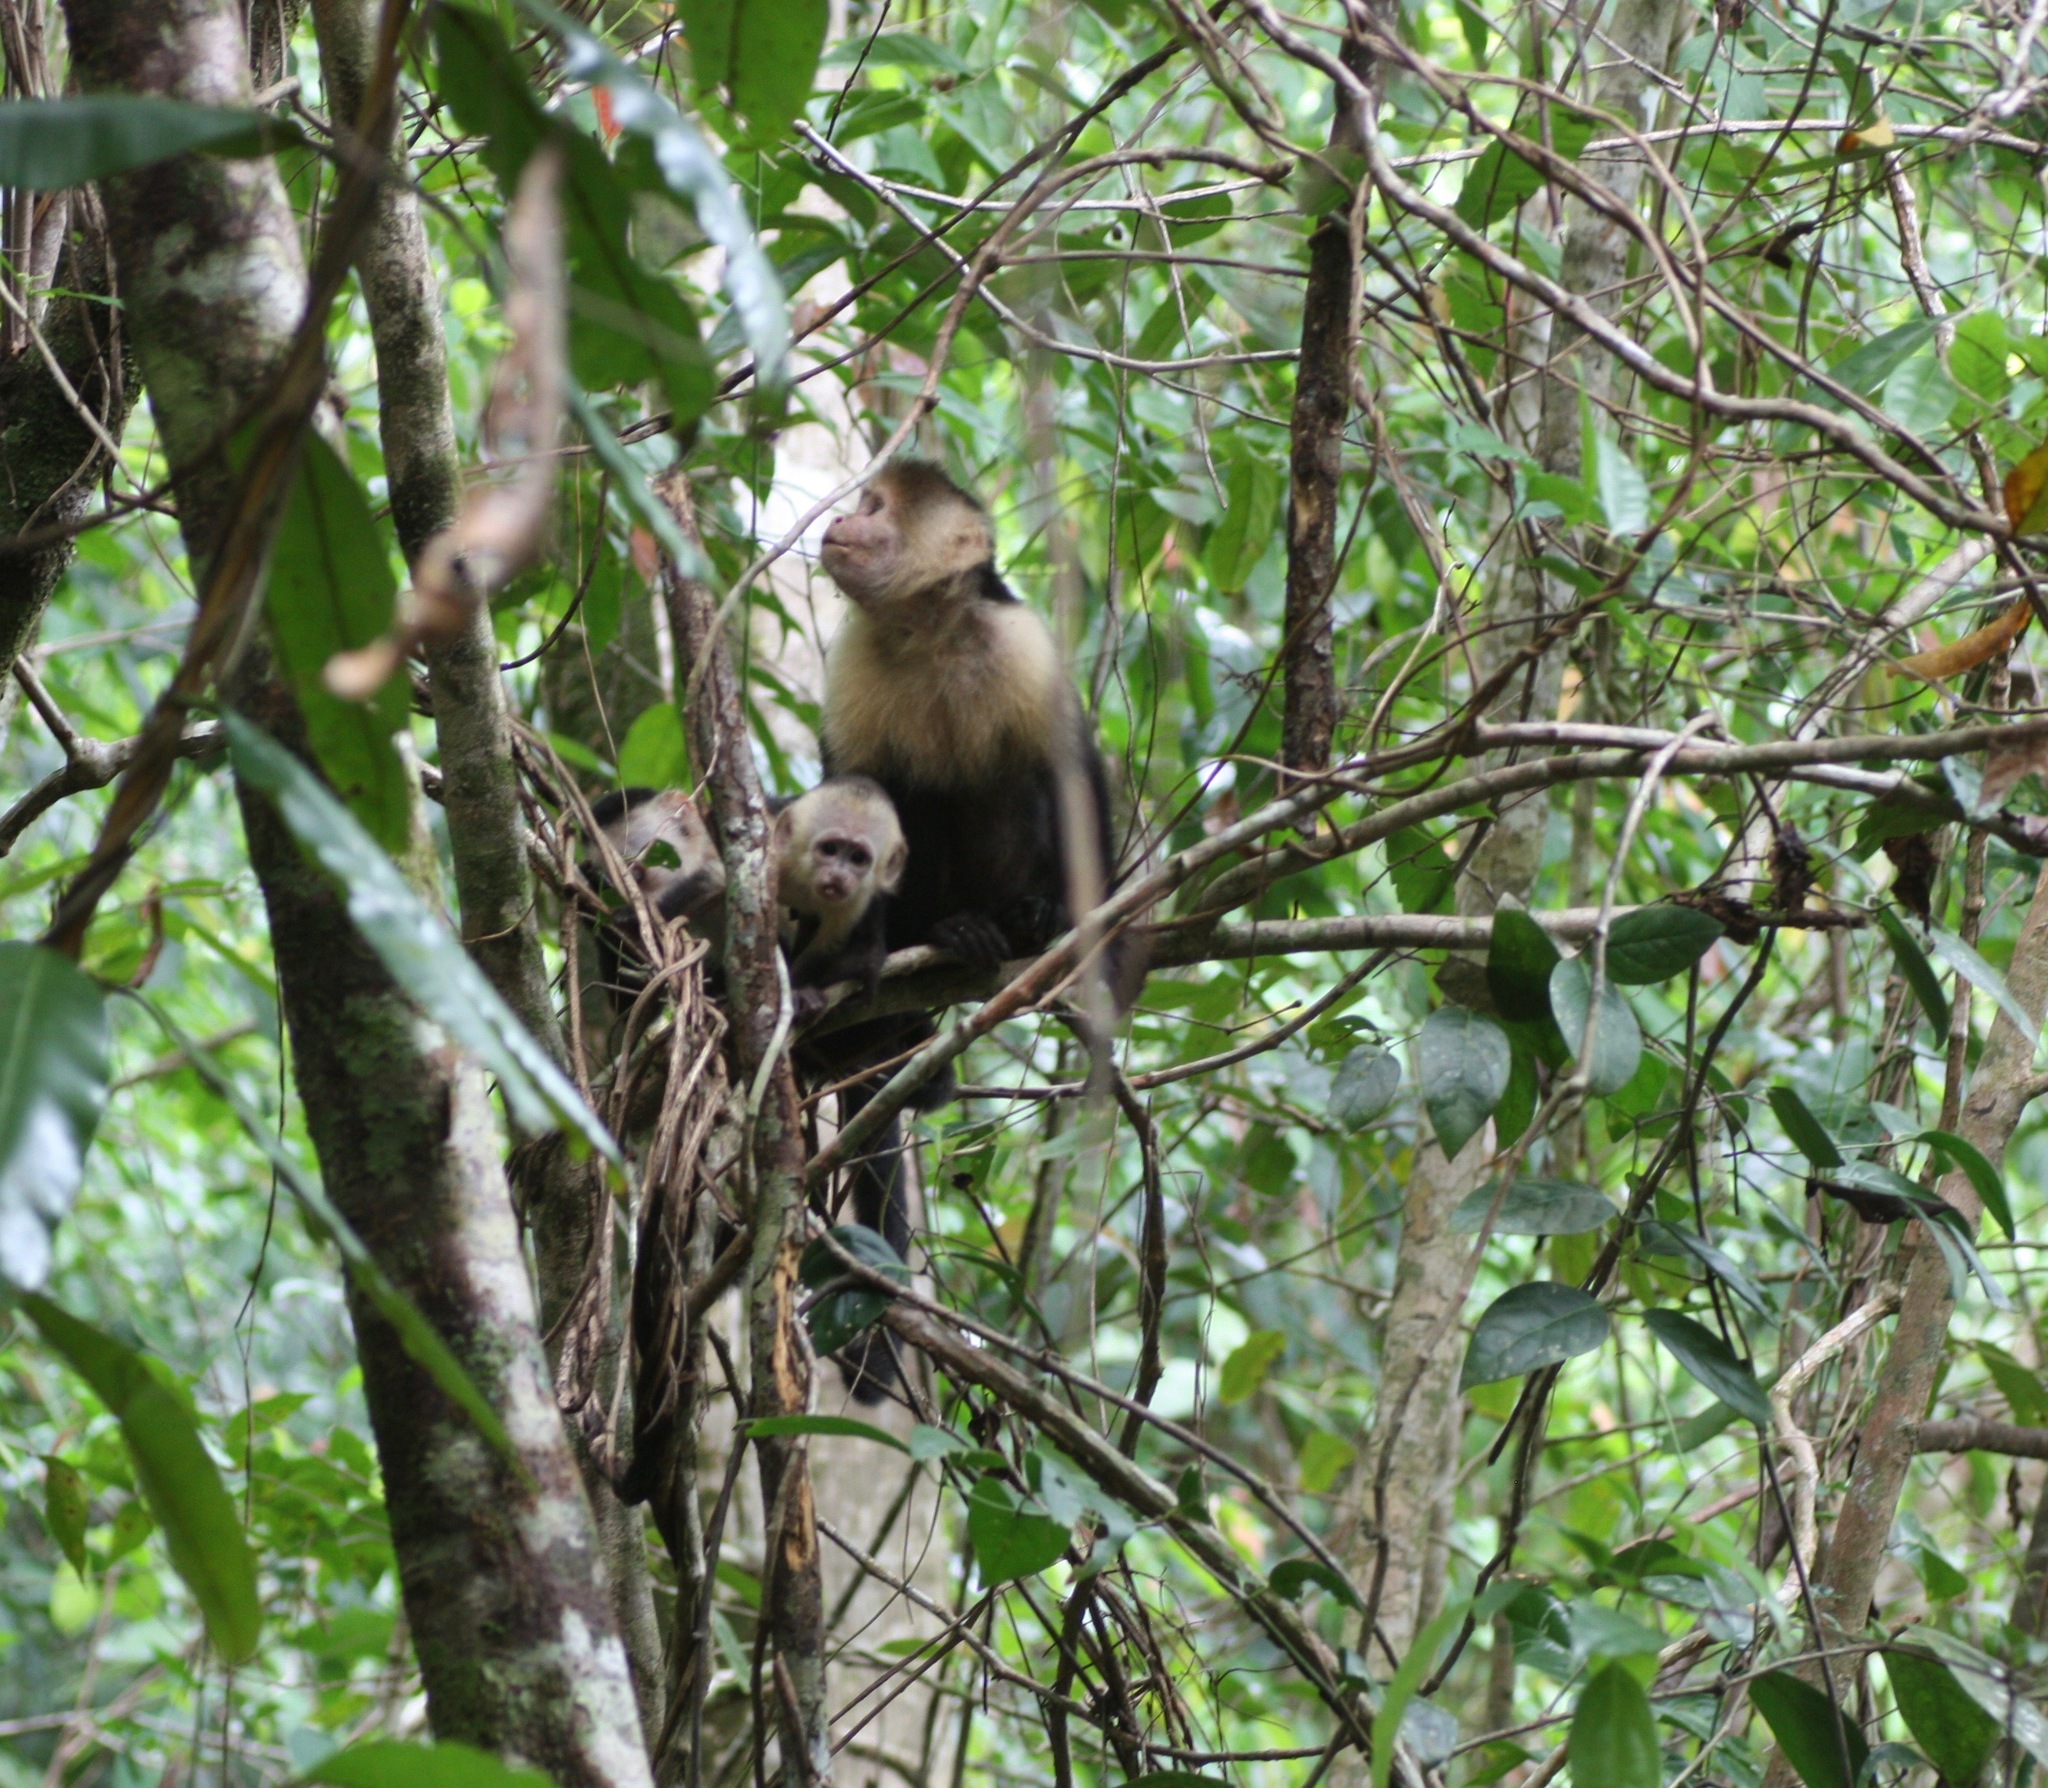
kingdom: Animalia
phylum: Chordata
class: Mammalia
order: Primates
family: Cebidae
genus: Cebus
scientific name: Cebus imitator
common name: Panamanian white-faced capuchin
